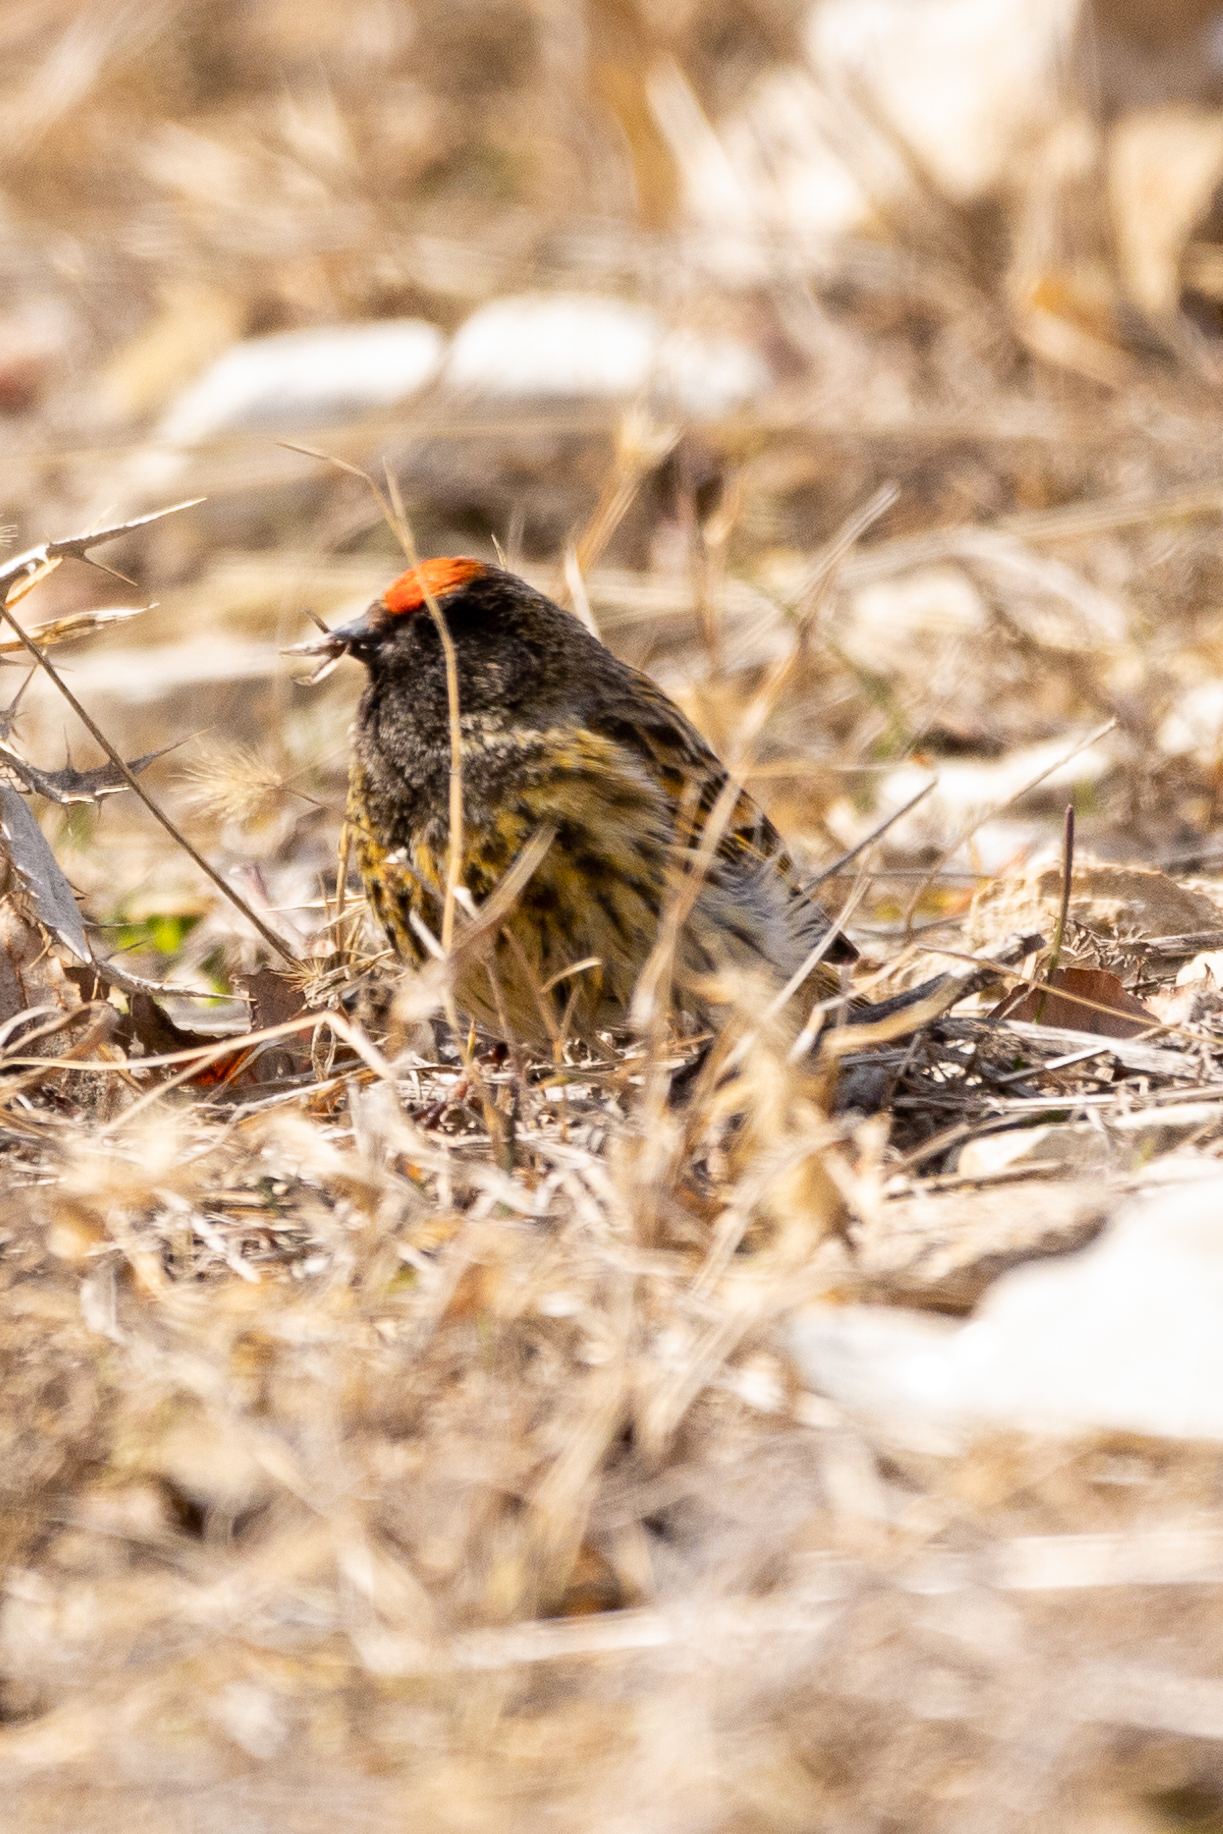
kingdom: Animalia
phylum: Chordata
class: Aves
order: Passeriformes
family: Fringillidae
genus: Serinus
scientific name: Serinus pusillus
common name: Red-fronted serin
